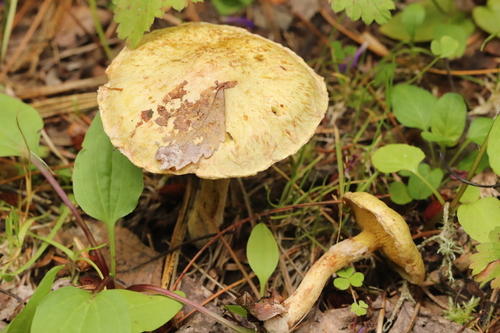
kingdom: Fungi
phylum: Basidiomycota
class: Agaricomycetes
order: Boletales
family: Suillaceae
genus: Suillus
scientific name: Suillus americanus
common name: Chicken fat mushroom
